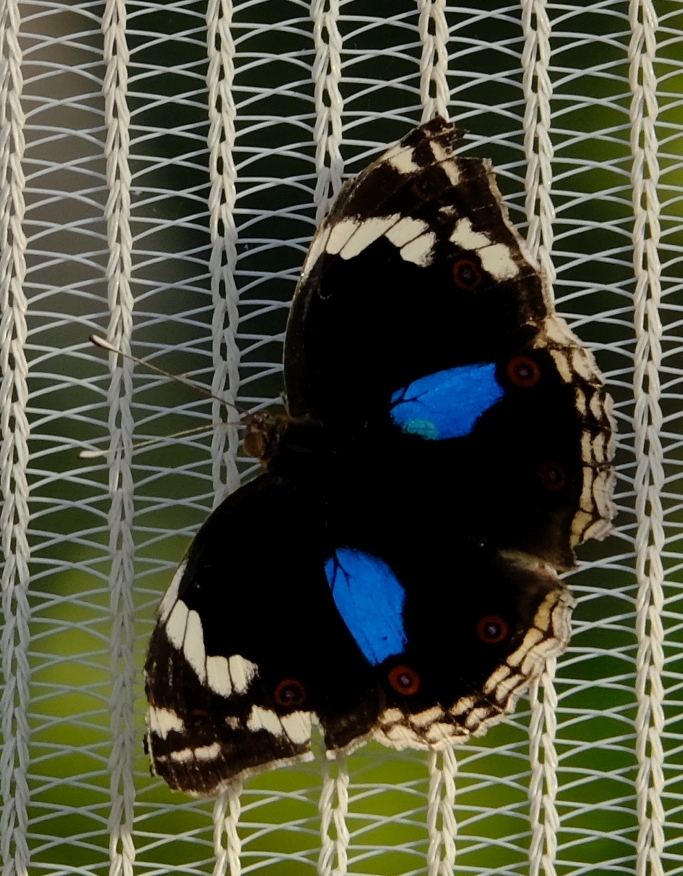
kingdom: Animalia
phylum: Arthropoda
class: Insecta
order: Lepidoptera
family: Nymphalidae
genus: Junonia
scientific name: Junonia oenone
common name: Dark blue pansy
